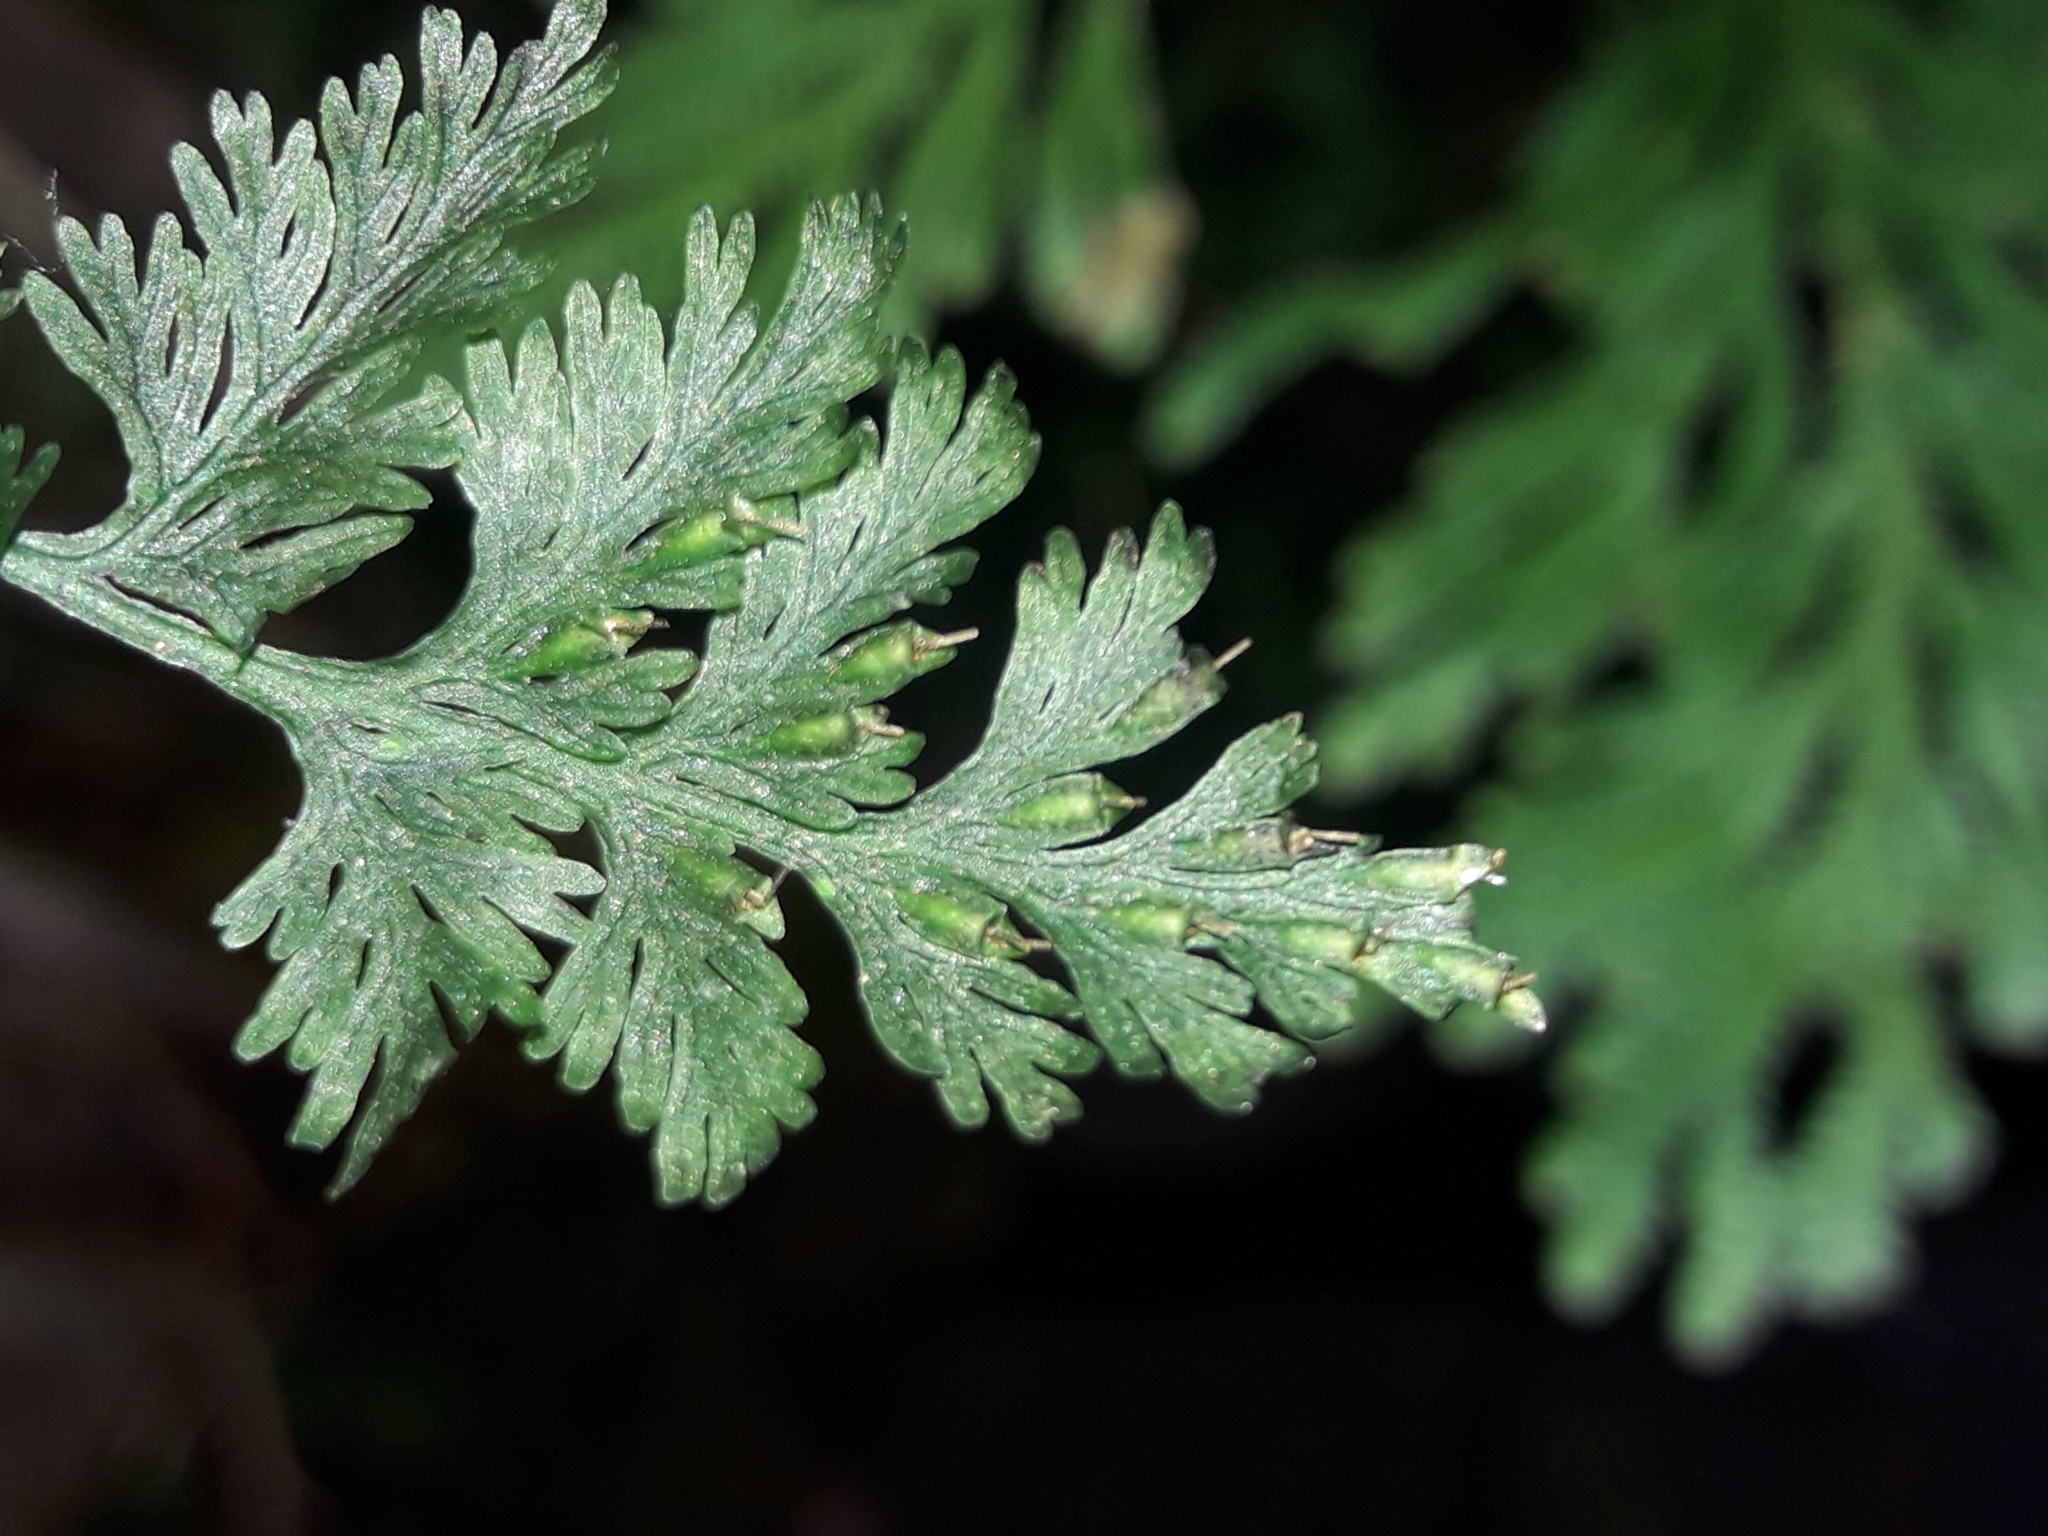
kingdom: Plantae
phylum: Tracheophyta
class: Polypodiopsida
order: Hymenophyllales
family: Hymenophyllaceae
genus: Crepidomanes
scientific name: Crepidomanes bipunctatum
